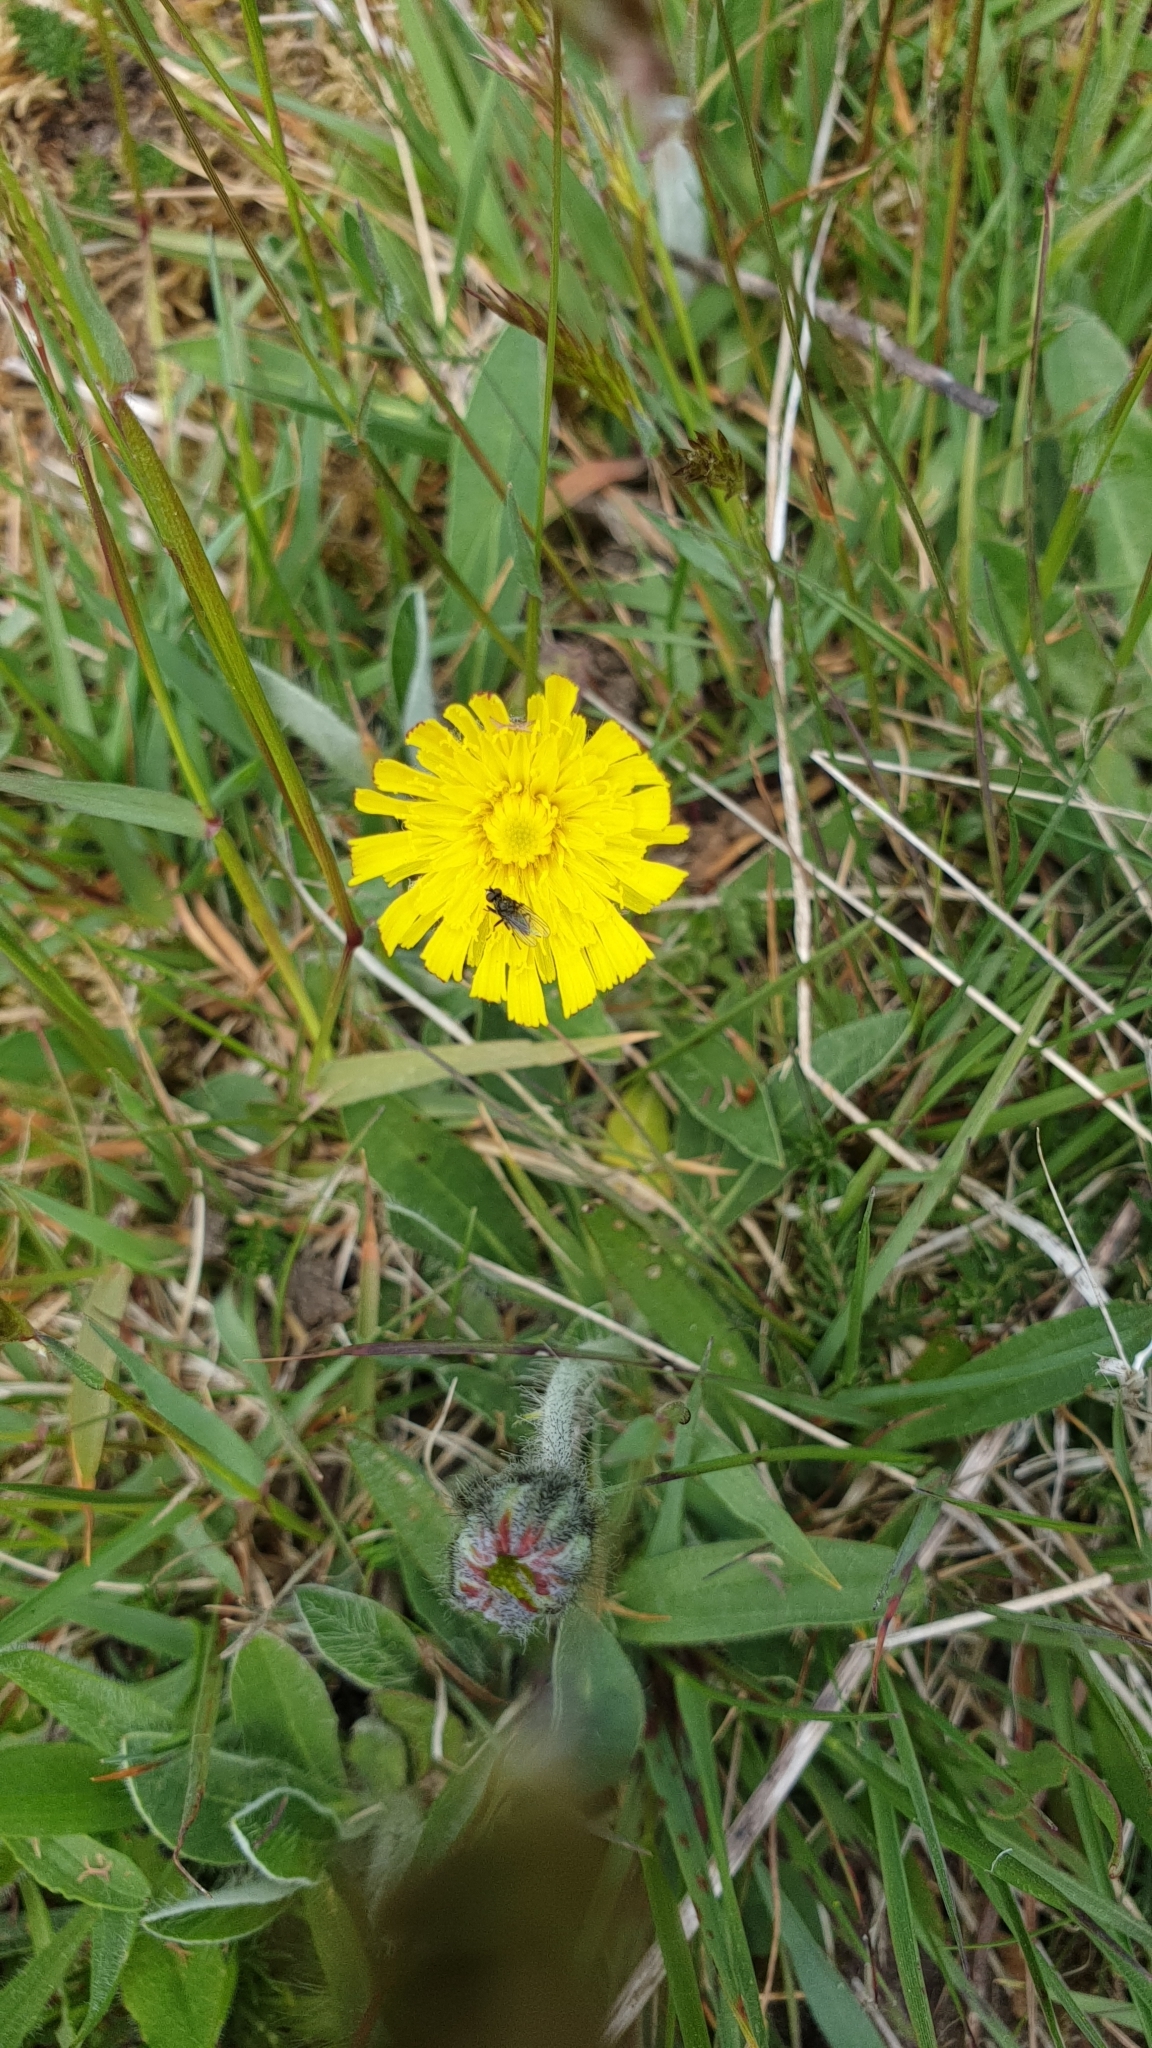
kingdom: Plantae
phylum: Tracheophyta
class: Magnoliopsida
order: Asterales
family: Asteraceae
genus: Pilosella
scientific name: Pilosella officinarum
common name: Mouse-ear hawkweed
